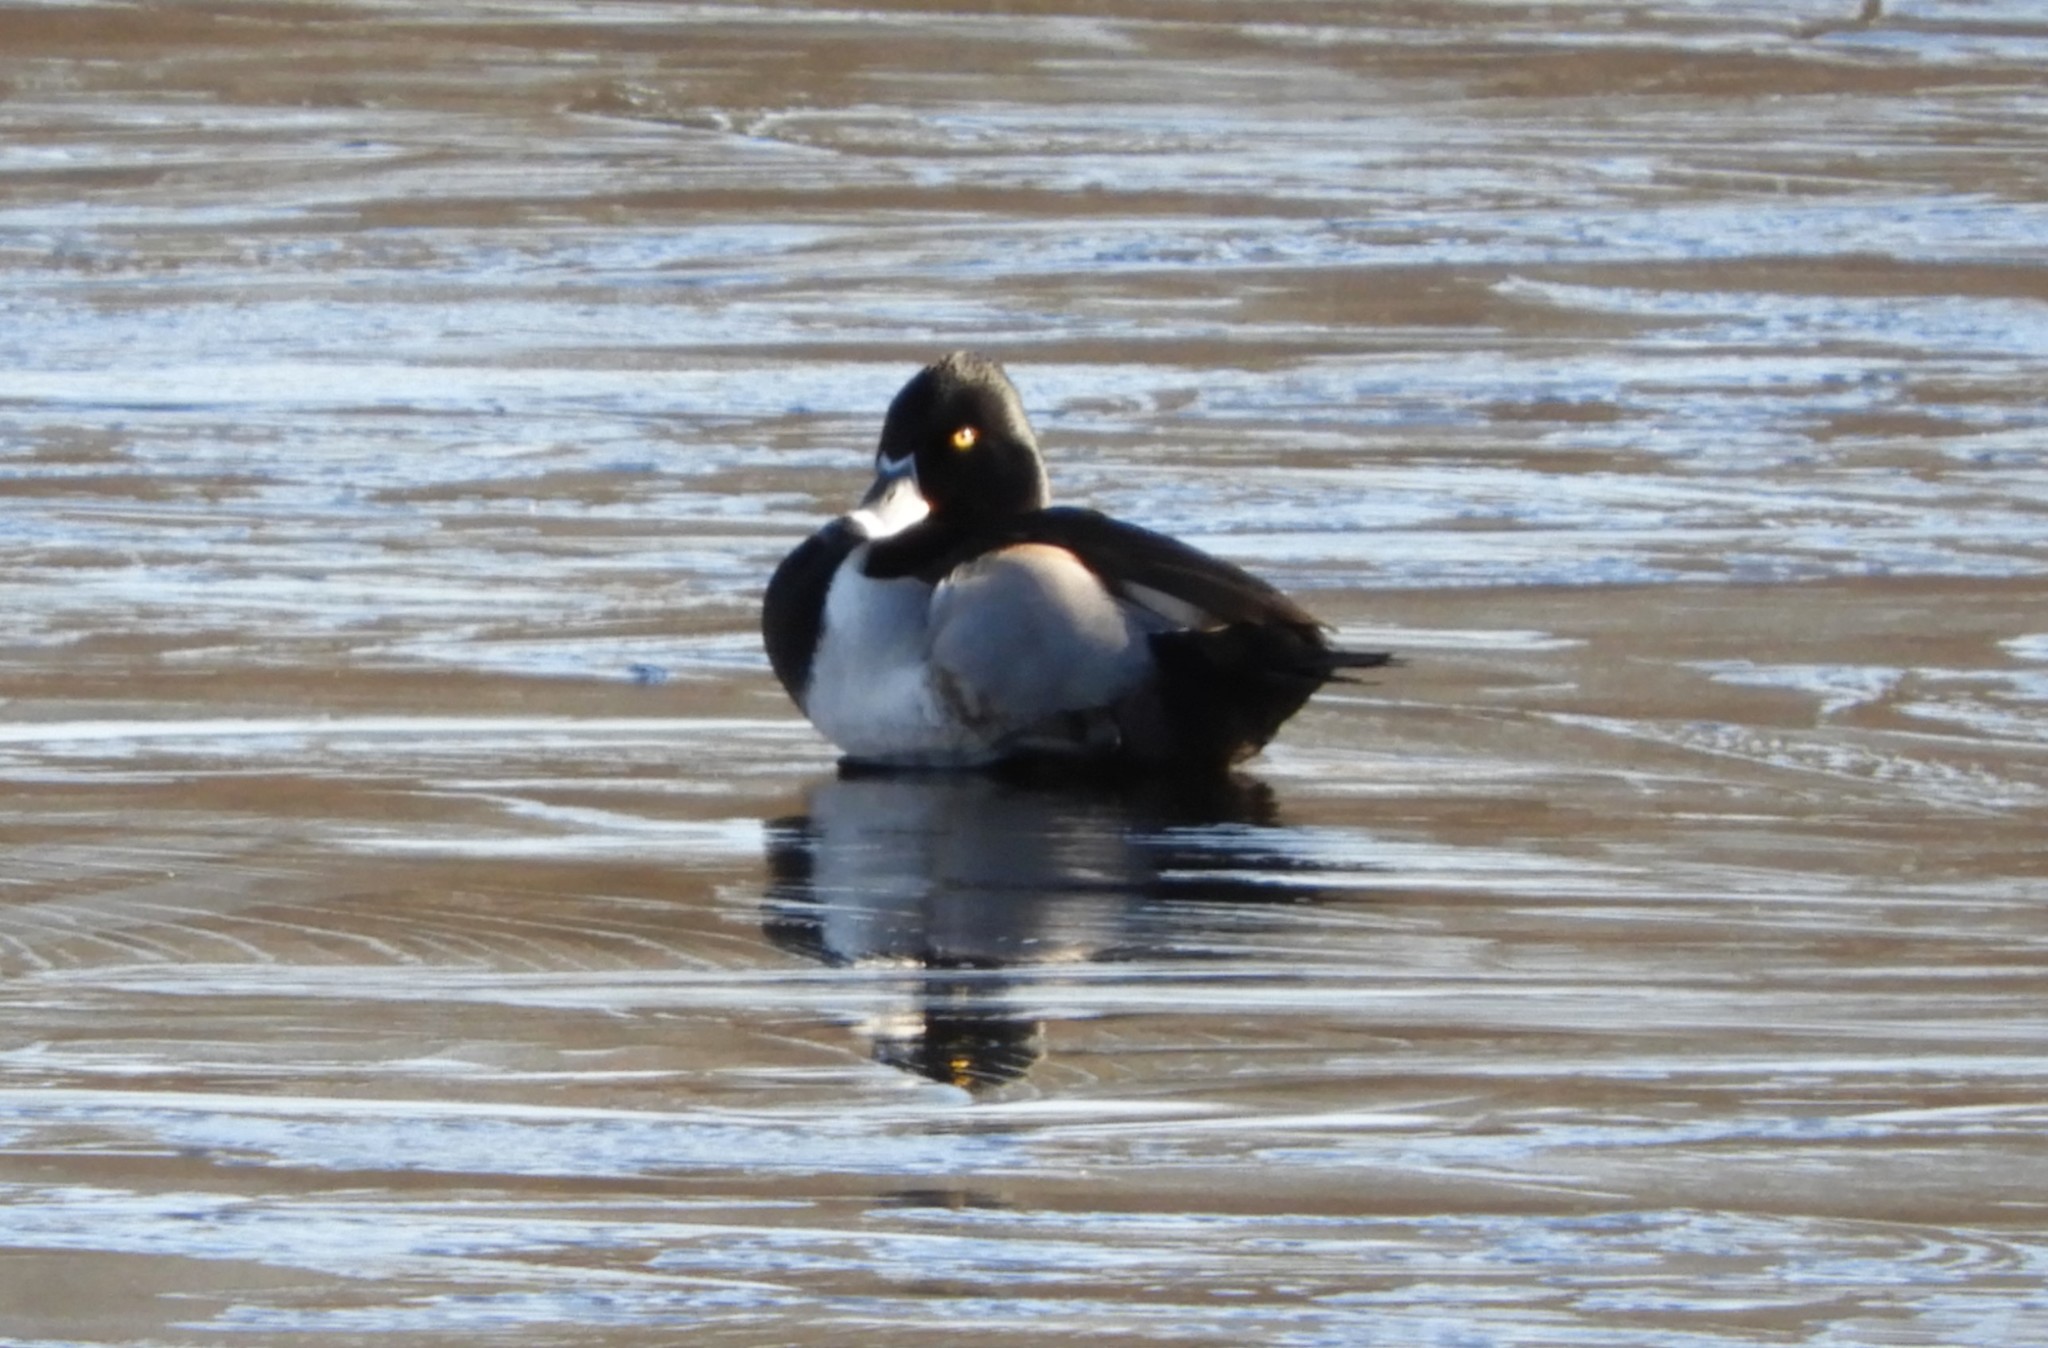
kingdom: Animalia
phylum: Chordata
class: Aves
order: Anseriformes
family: Anatidae
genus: Aythya
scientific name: Aythya collaris
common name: Ring-necked duck
